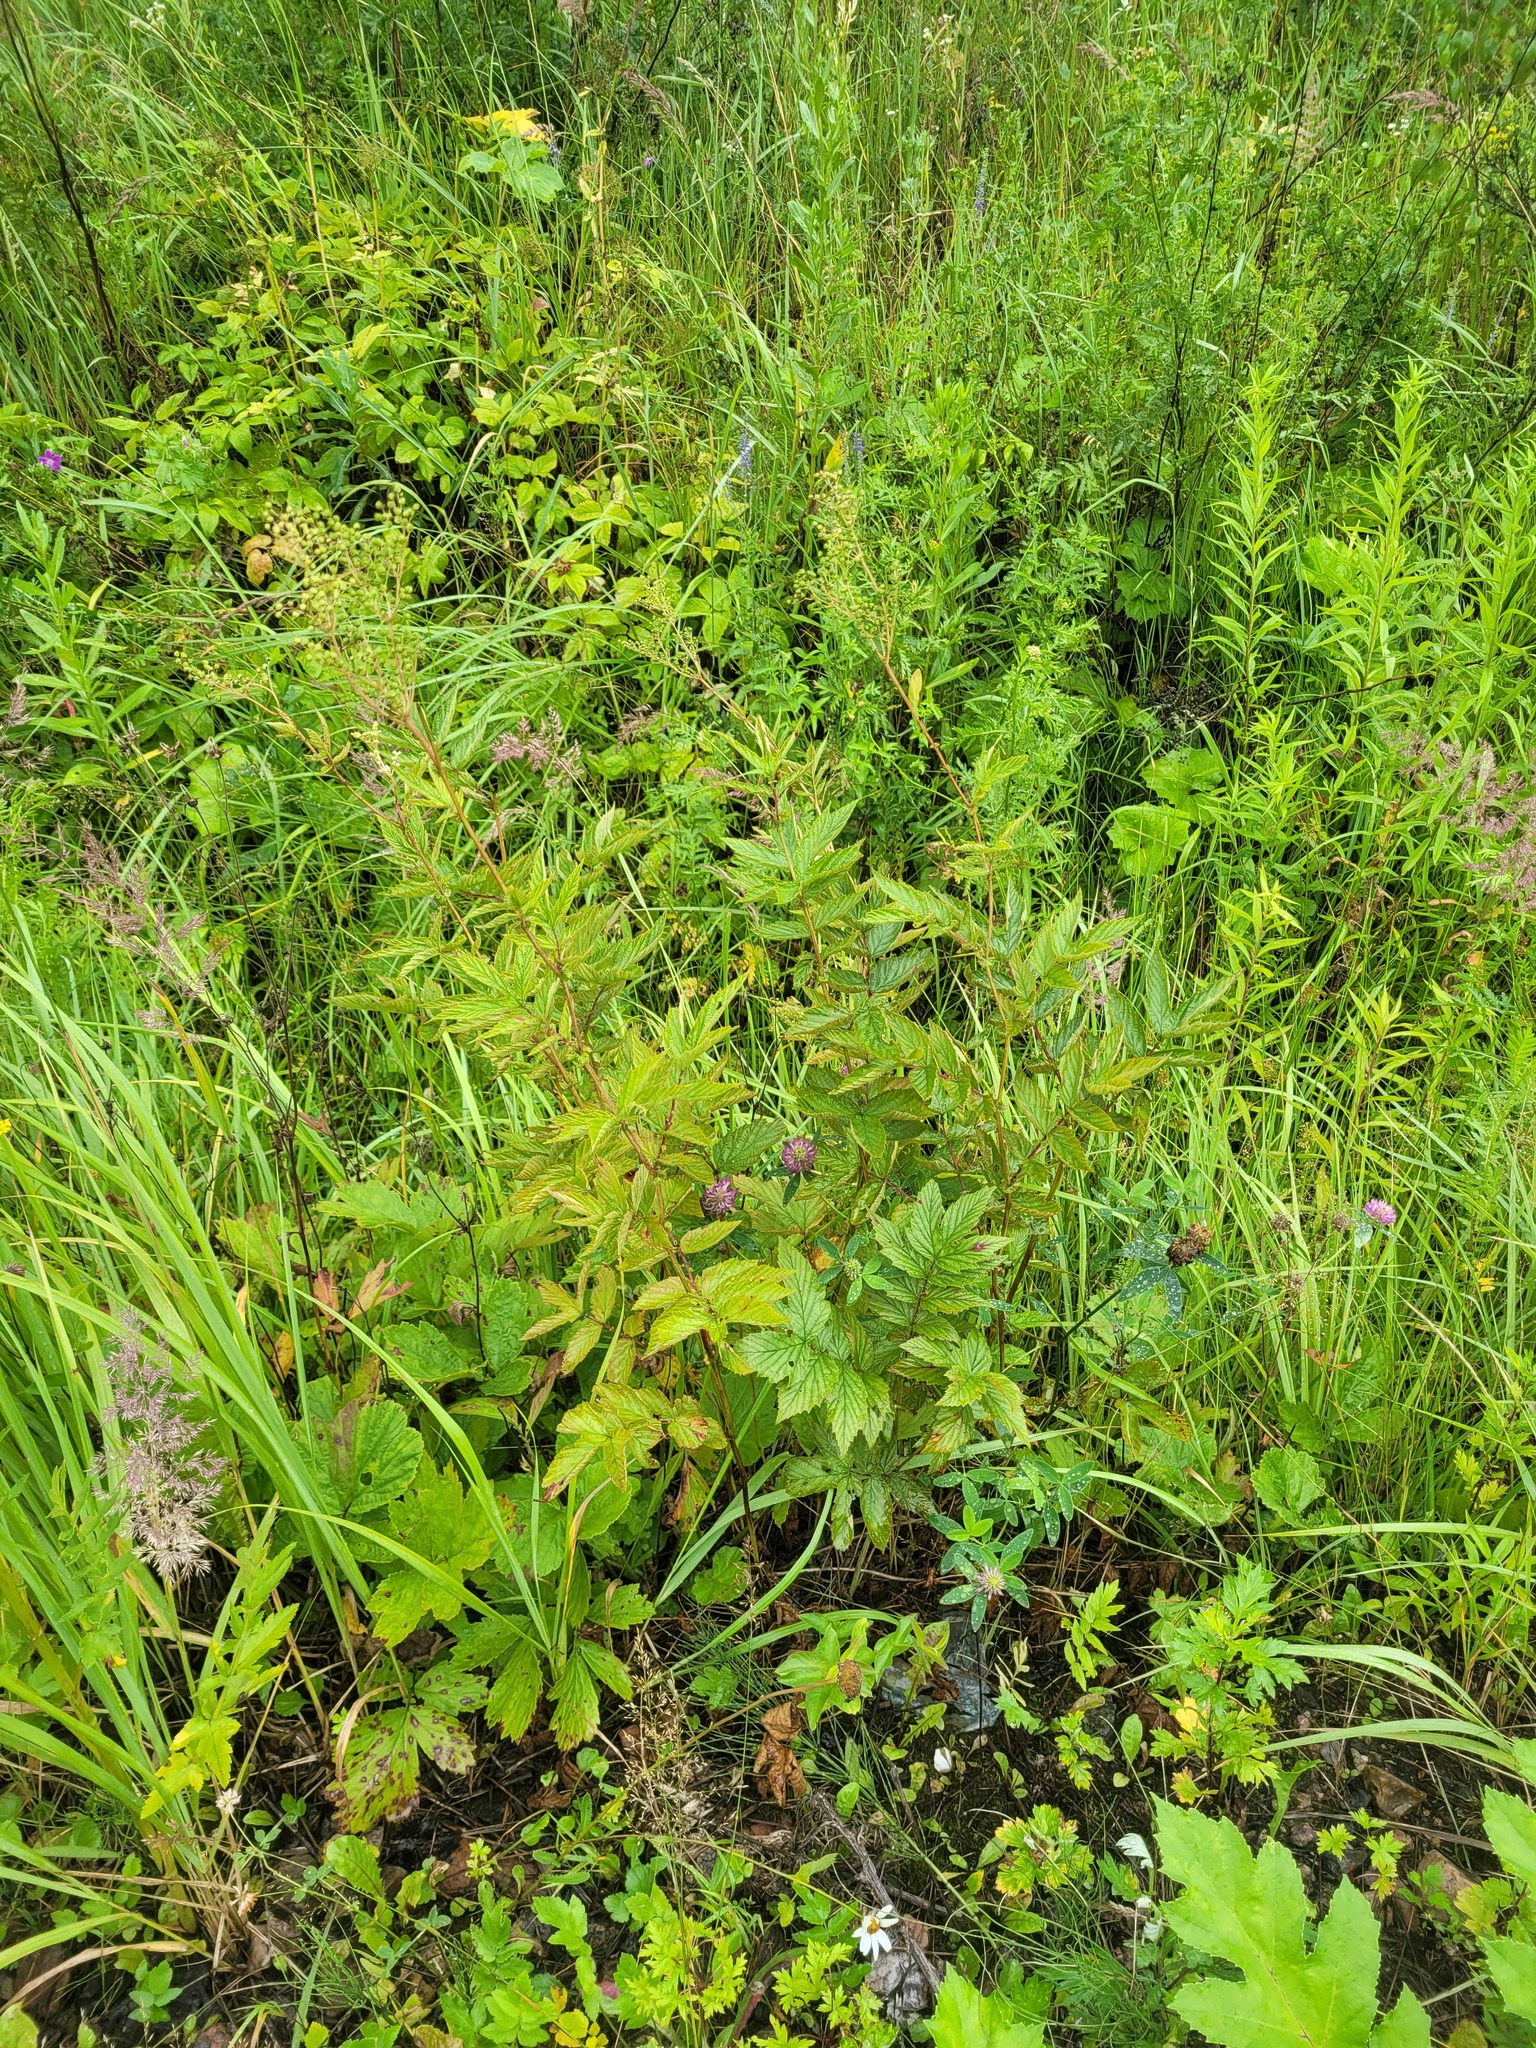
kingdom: Plantae
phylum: Tracheophyta
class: Magnoliopsida
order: Rosales
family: Rosaceae
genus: Filipendula
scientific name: Filipendula ulmaria
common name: Meadowsweet
